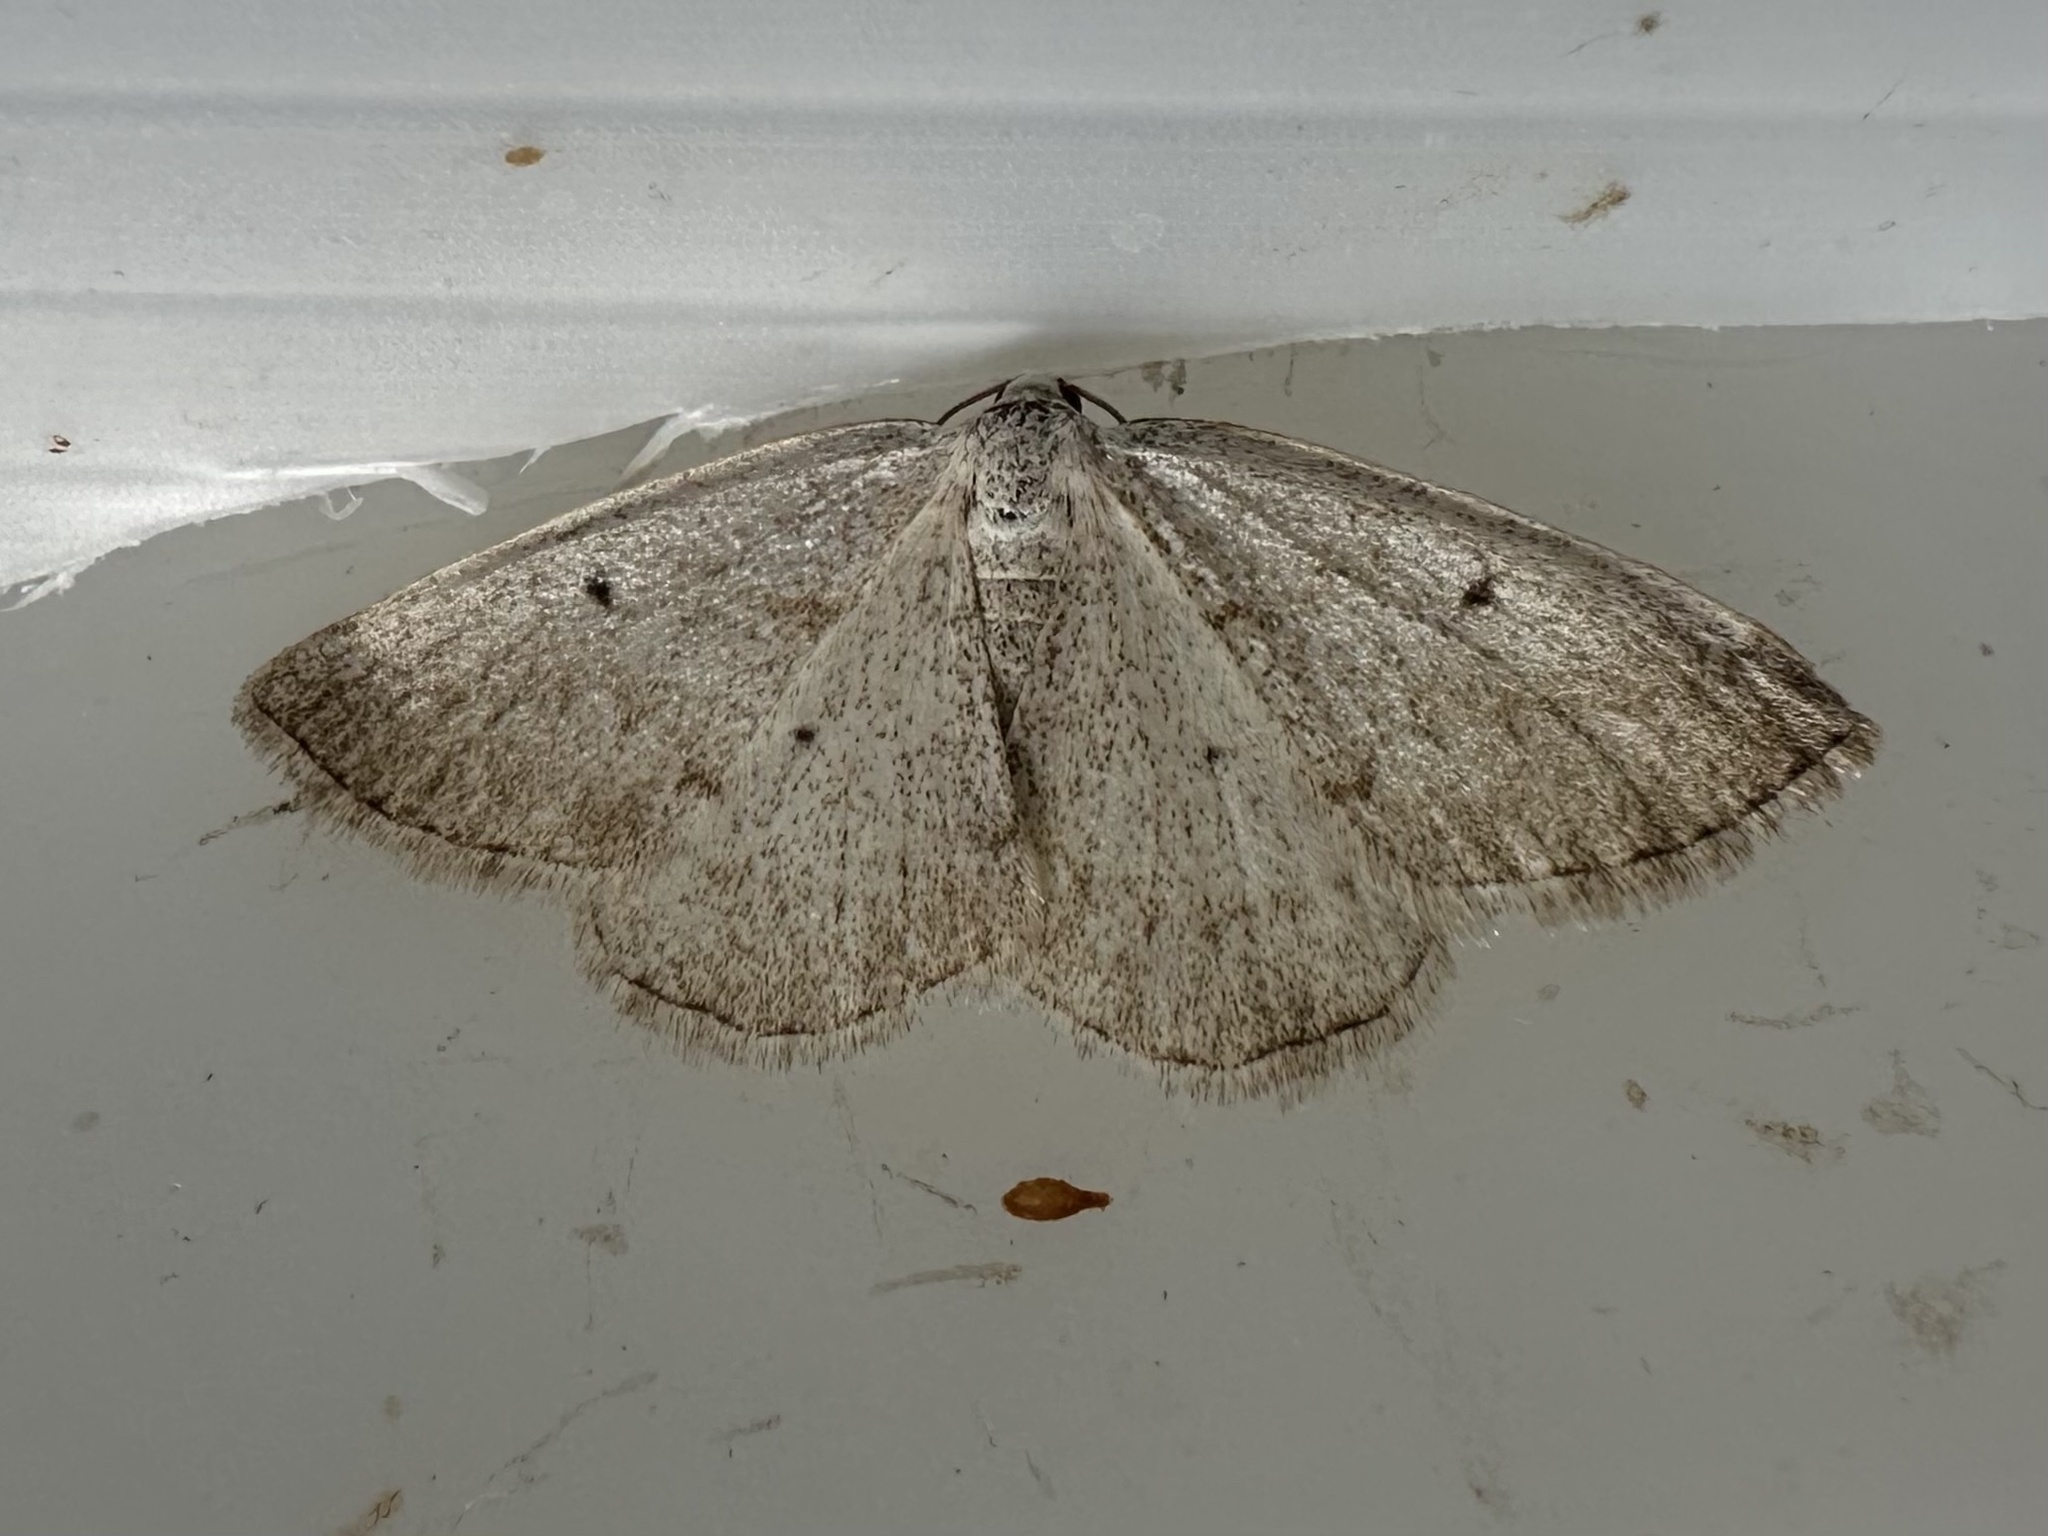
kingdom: Animalia
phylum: Arthropoda
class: Insecta
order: Lepidoptera
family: Geometridae
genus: Lomographa
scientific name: Lomographa glomeraria
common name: Gray spring moth
